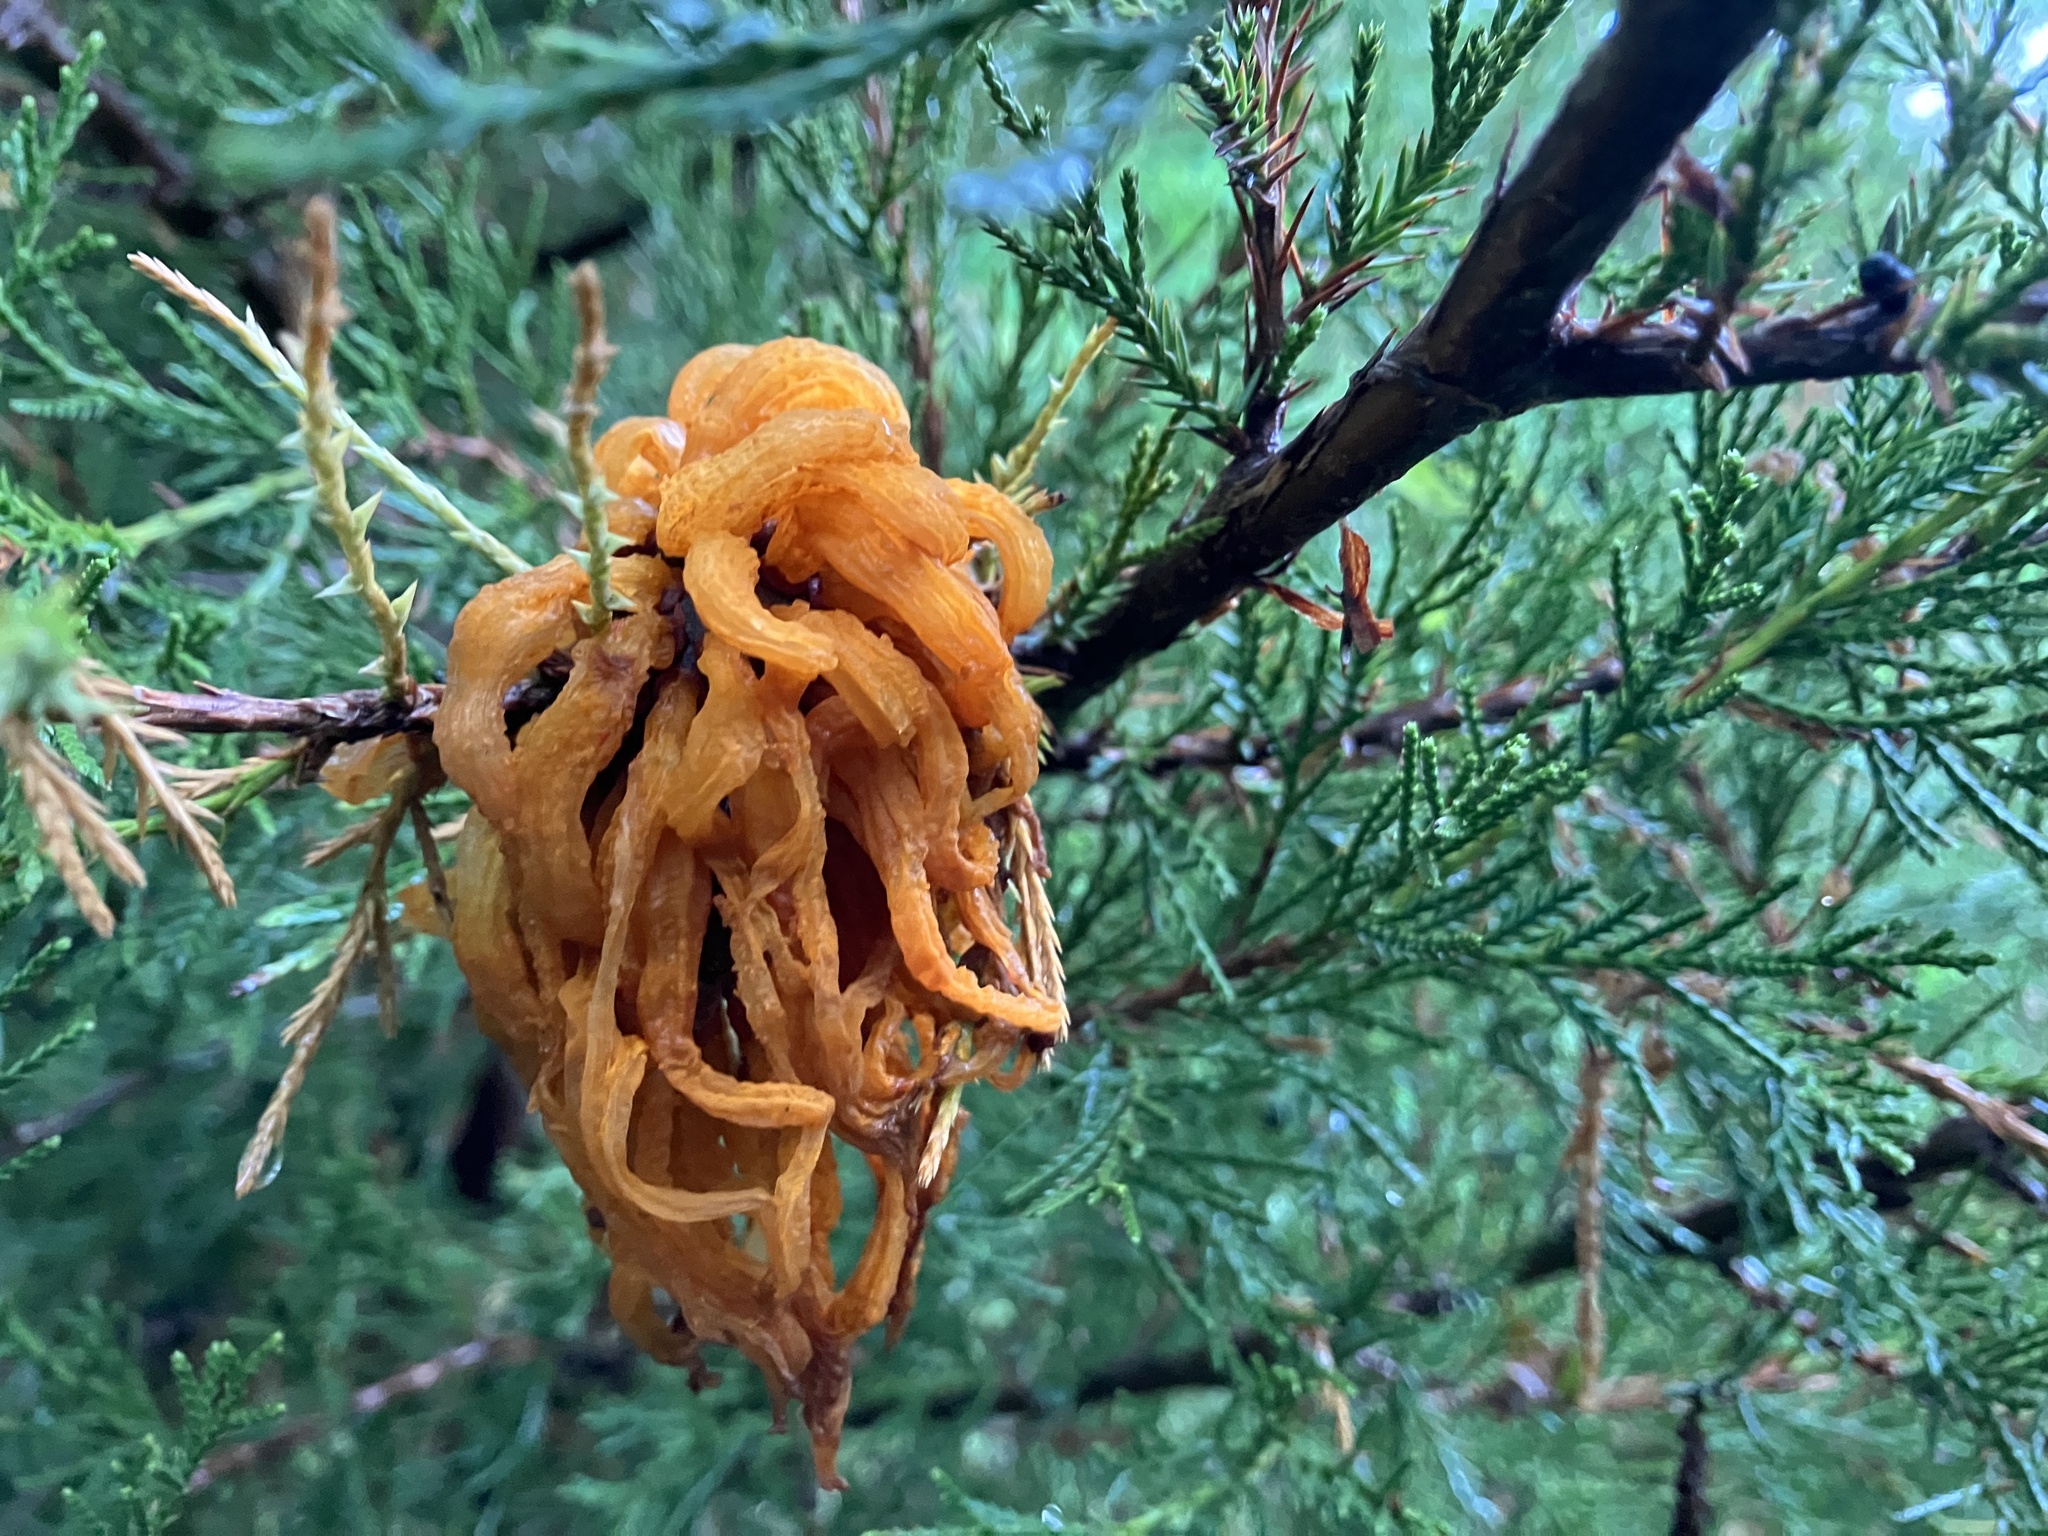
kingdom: Fungi
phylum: Basidiomycota
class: Pucciniomycetes
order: Pucciniales
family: Gymnosporangiaceae
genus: Gymnosporangium
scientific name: Gymnosporangium juniperi-virginianae
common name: Juniper-apple rust
